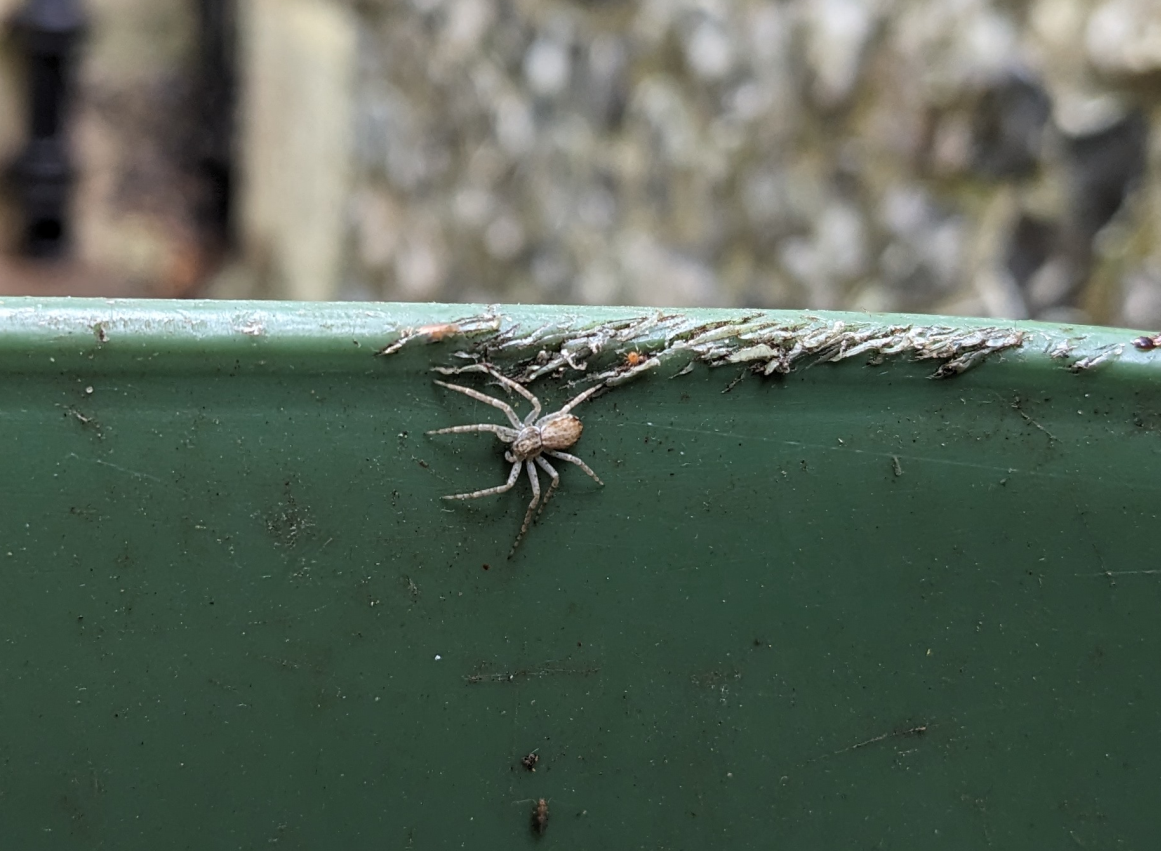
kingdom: Animalia
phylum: Arthropoda
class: Arachnida
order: Araneae
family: Philodromidae
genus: Philodromus
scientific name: Philodromus dispar
